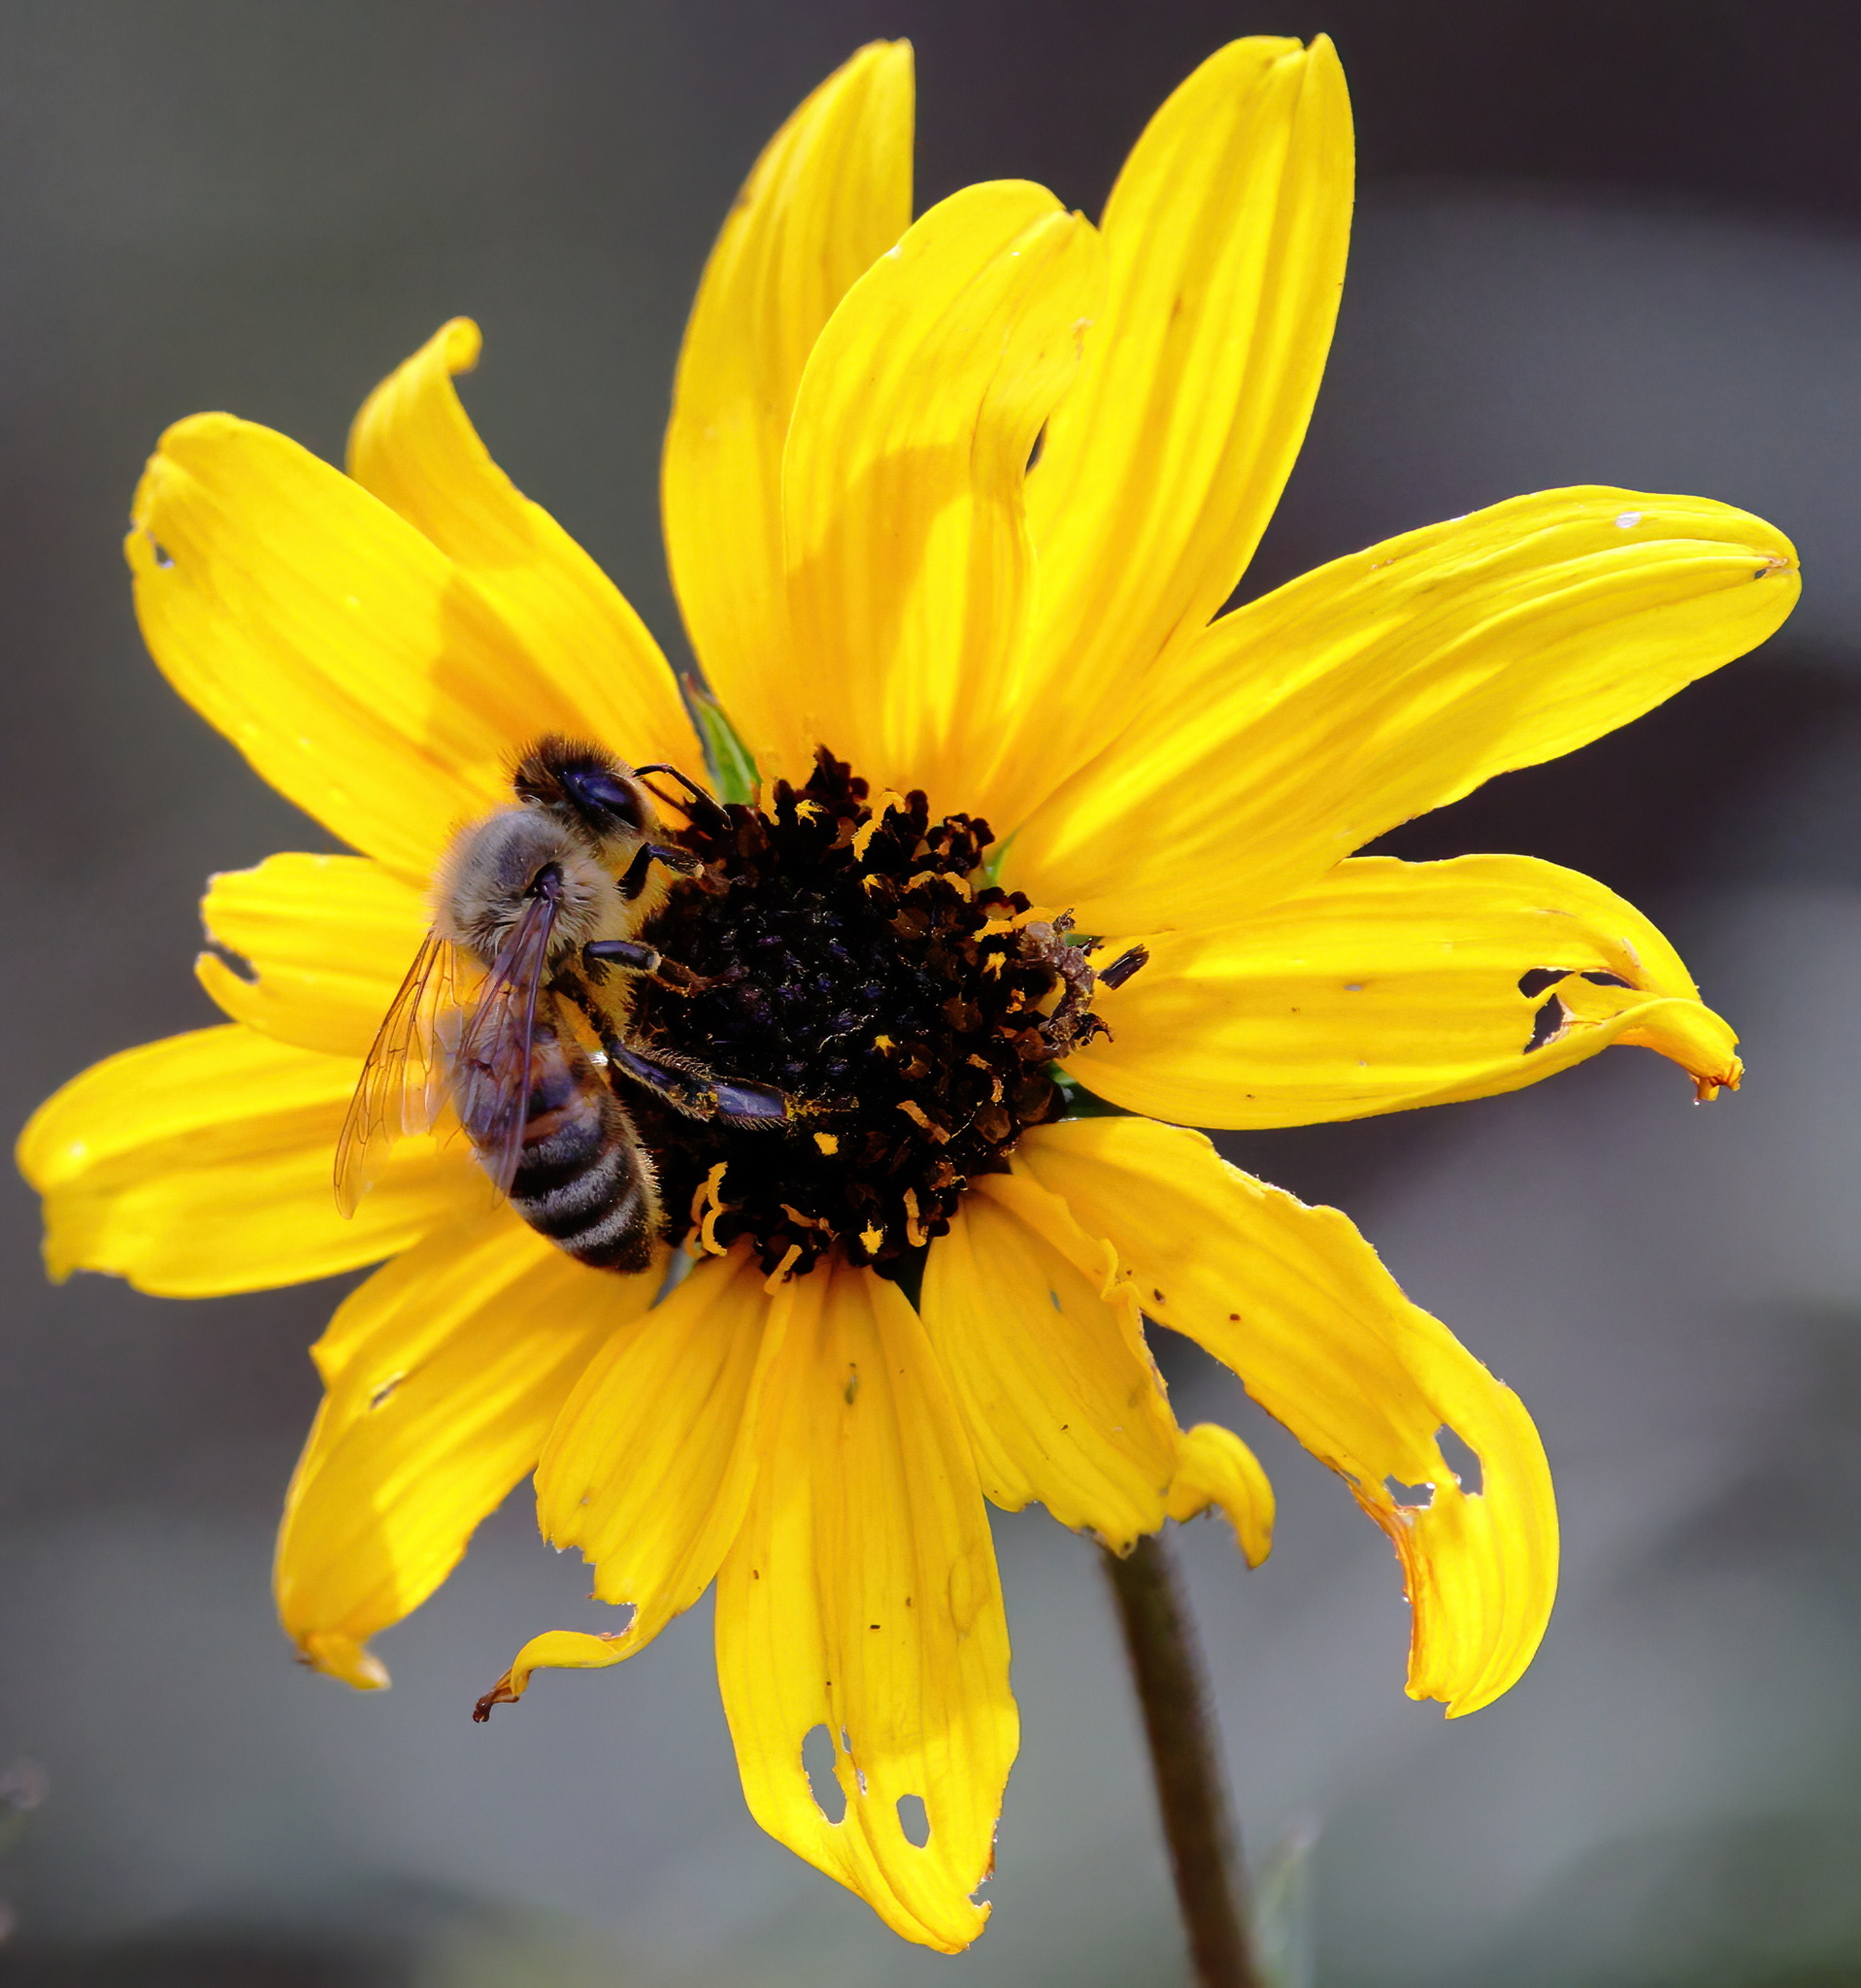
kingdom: Animalia
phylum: Arthropoda
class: Insecta
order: Hymenoptera
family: Apidae
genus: Apis
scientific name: Apis mellifera
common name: Honey bee
